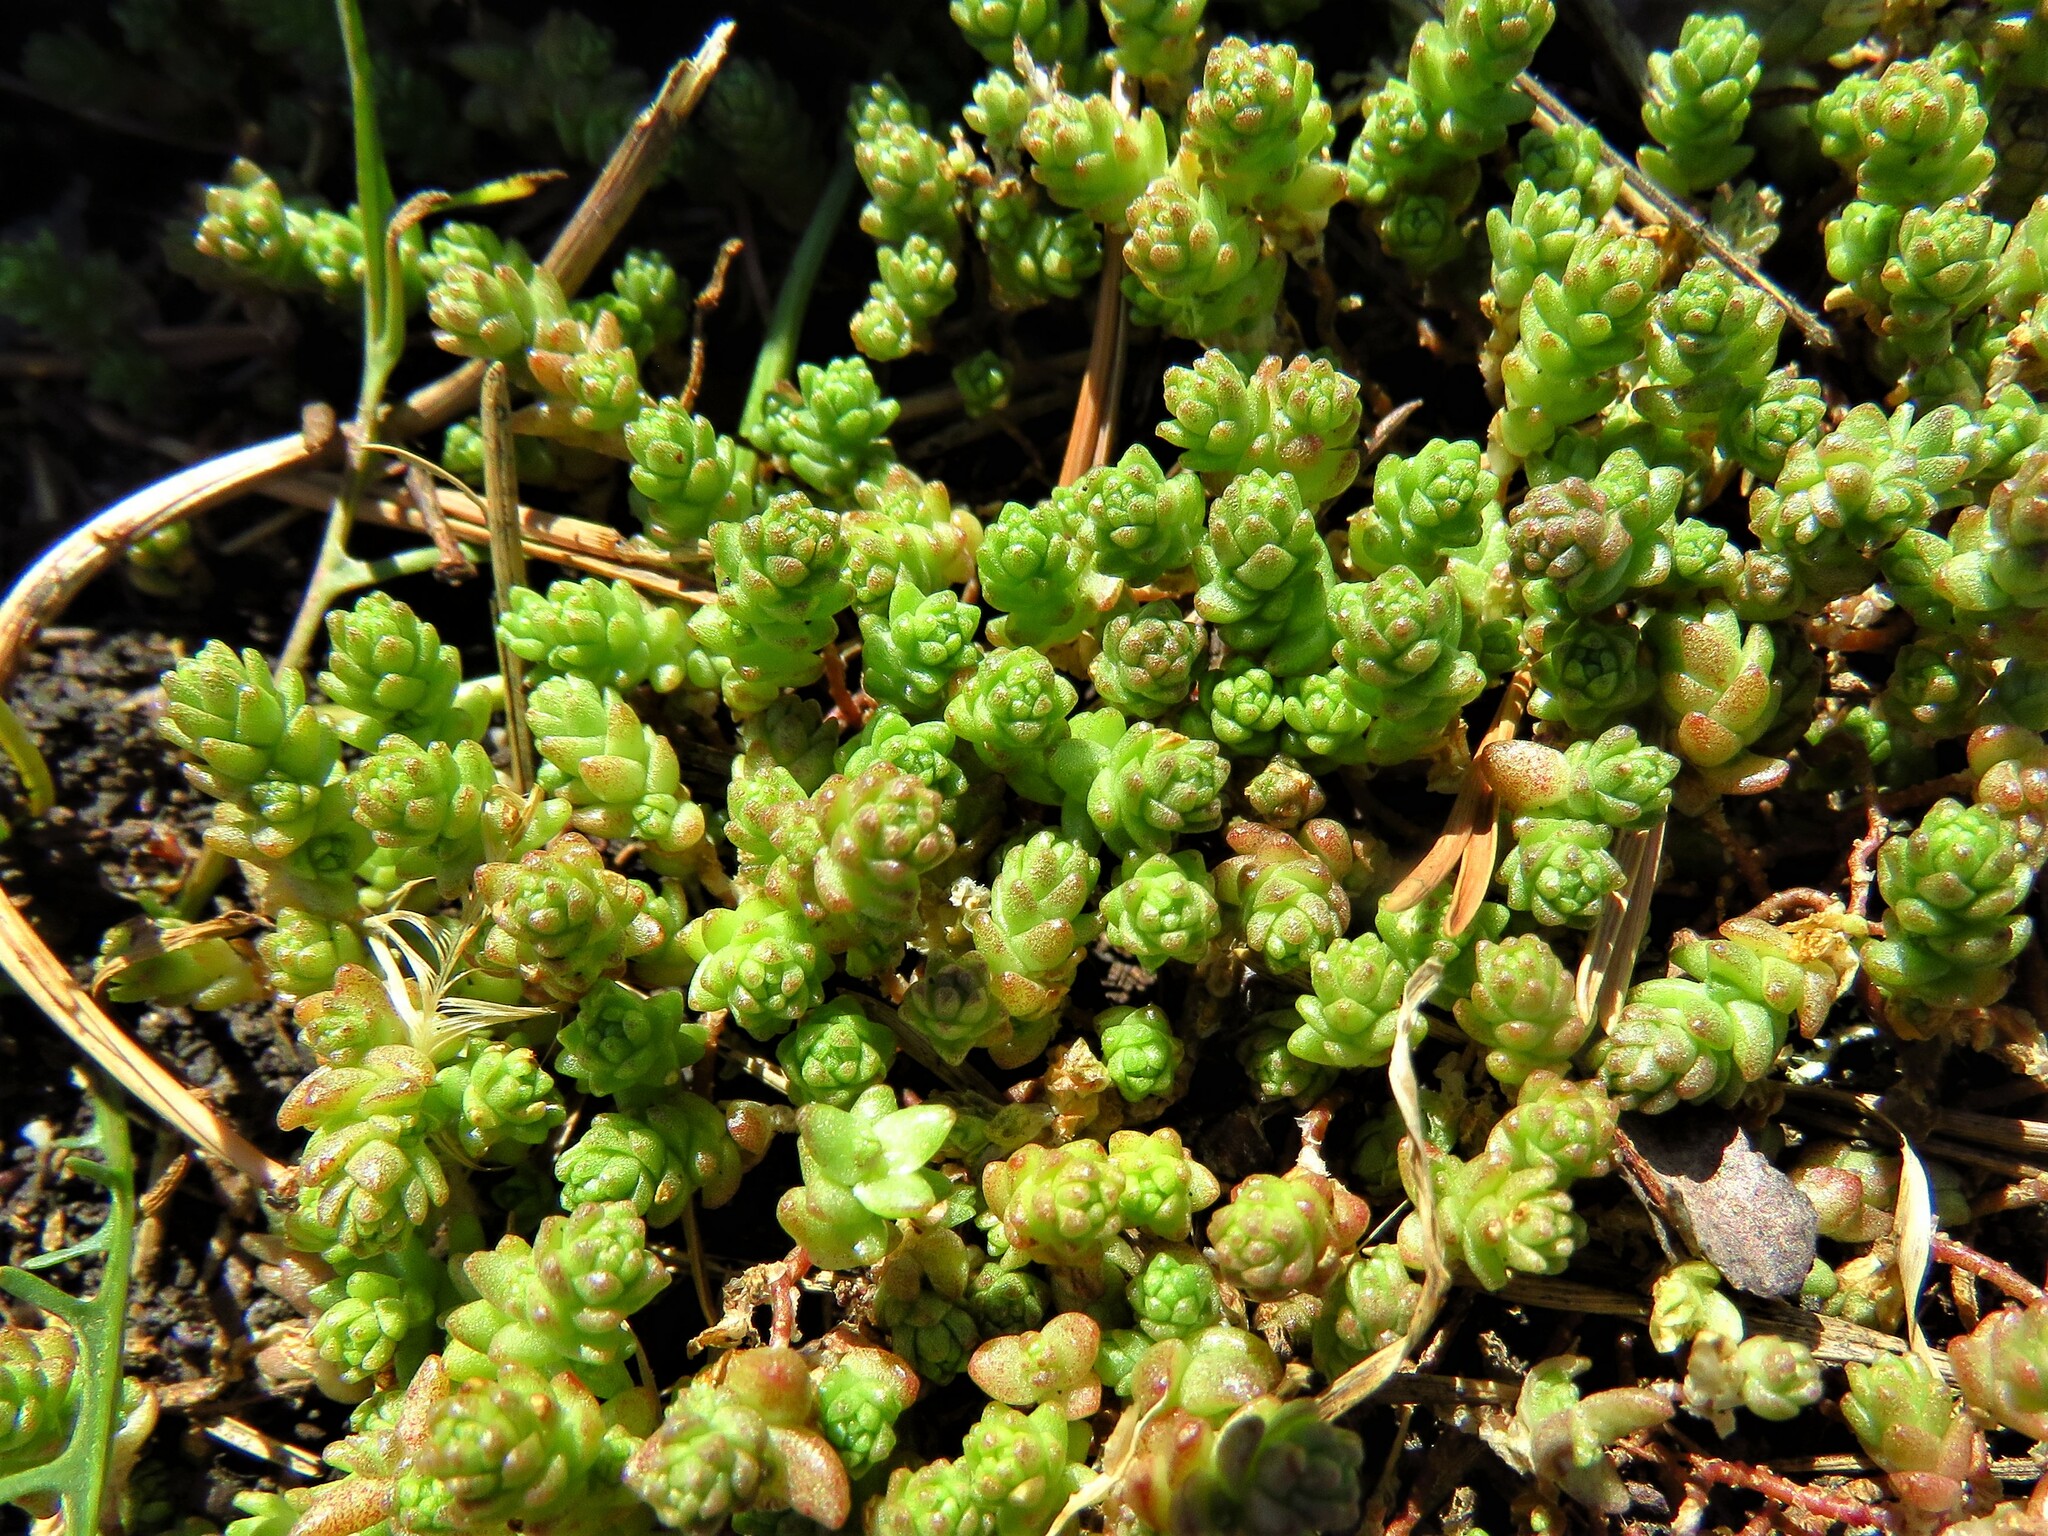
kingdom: Plantae
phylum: Tracheophyta
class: Magnoliopsida
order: Saxifragales
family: Crassulaceae
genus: Sedum
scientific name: Sedum acre
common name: Biting stonecrop
